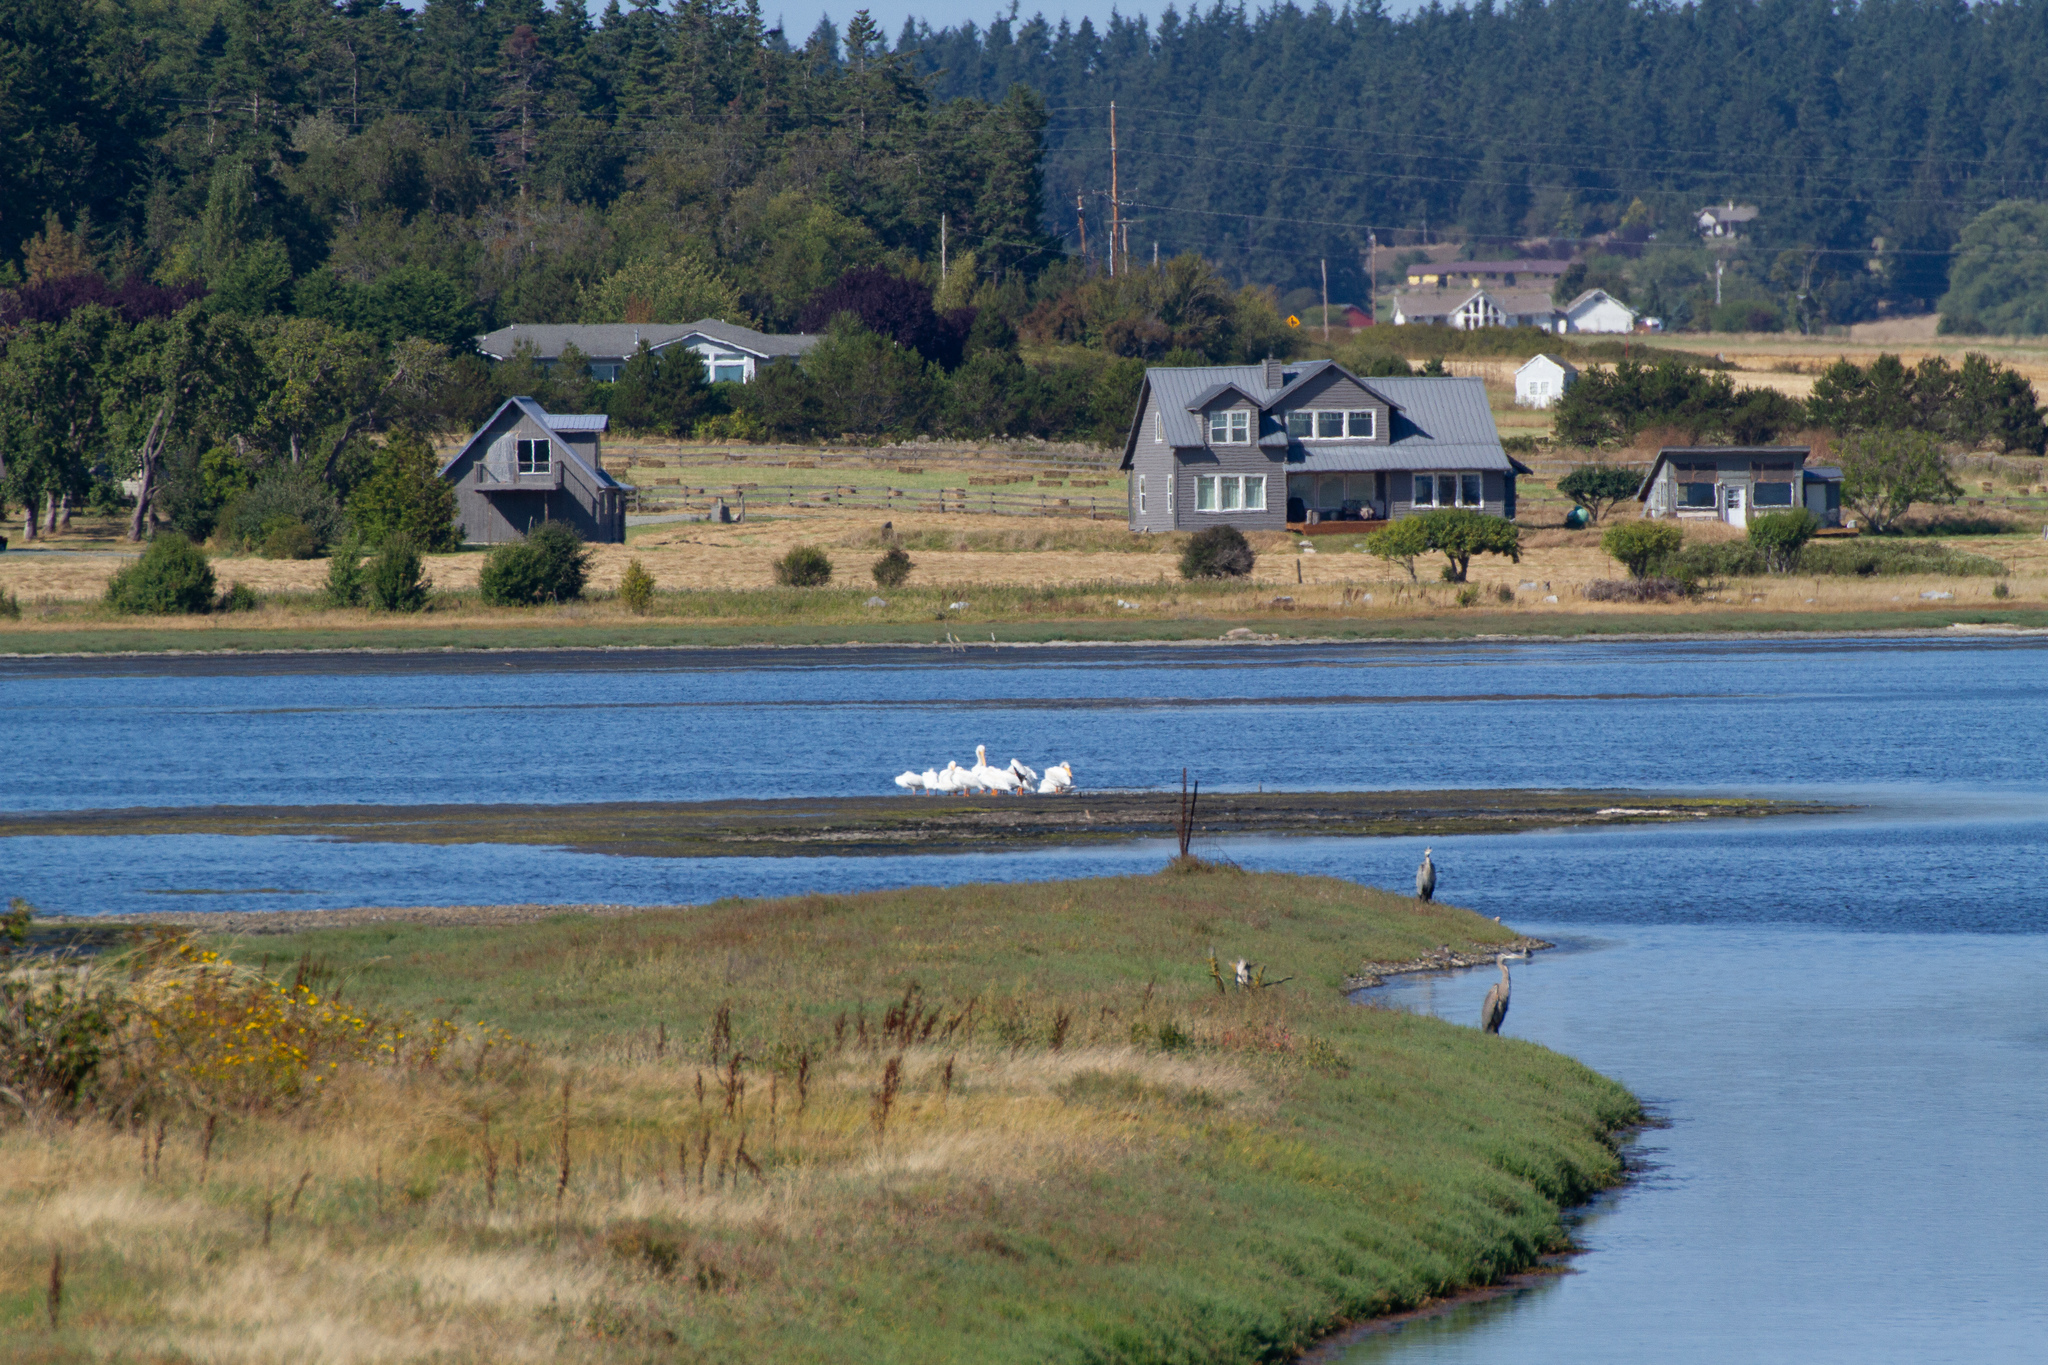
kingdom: Animalia
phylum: Chordata
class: Aves
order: Pelecaniformes
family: Pelecanidae
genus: Pelecanus
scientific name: Pelecanus erythrorhynchos
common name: American white pelican
